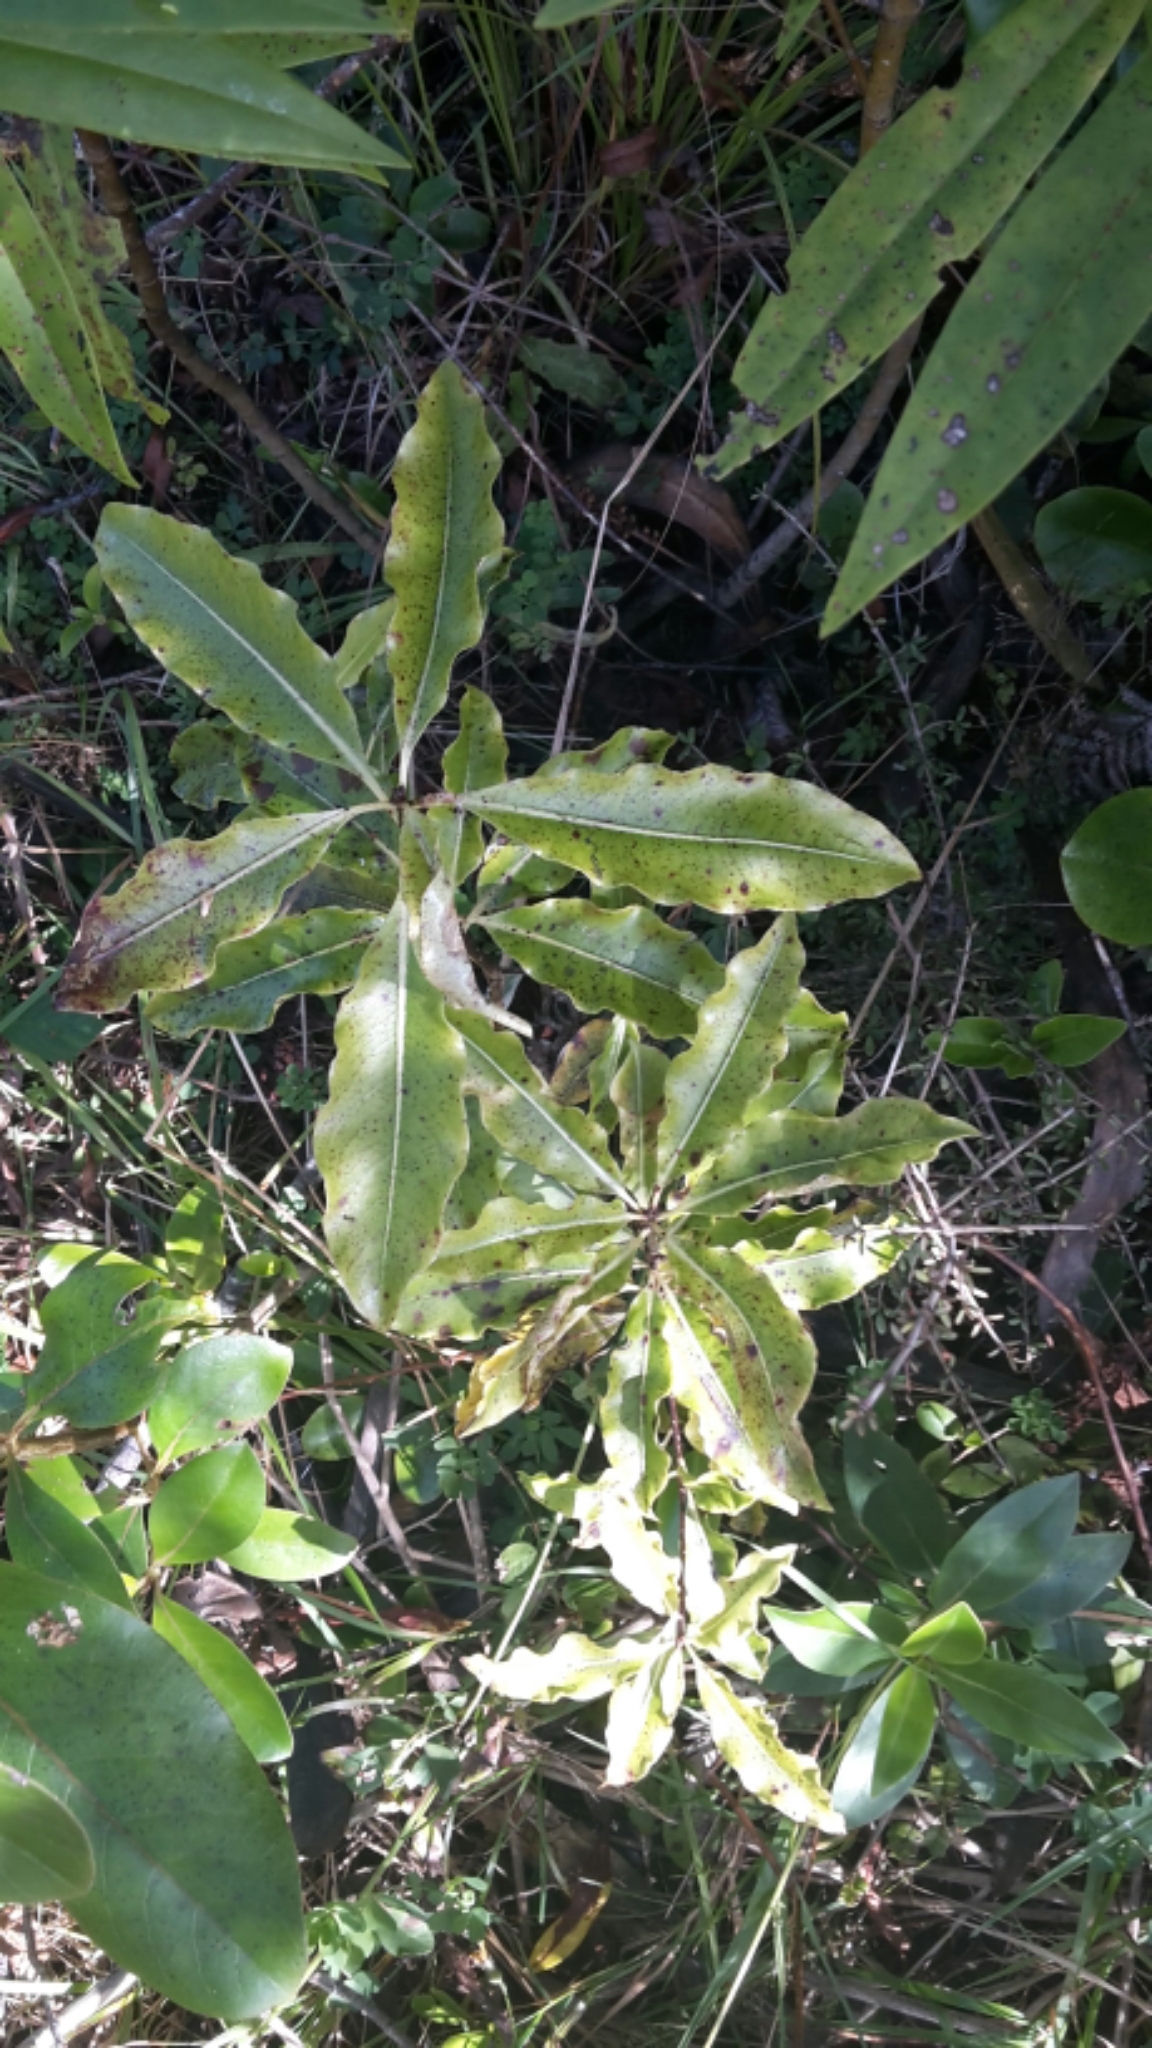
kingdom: Plantae
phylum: Tracheophyta
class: Magnoliopsida
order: Apiales
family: Pittosporaceae
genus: Pittosporum
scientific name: Pittosporum eugenioides
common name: Lemonwood
